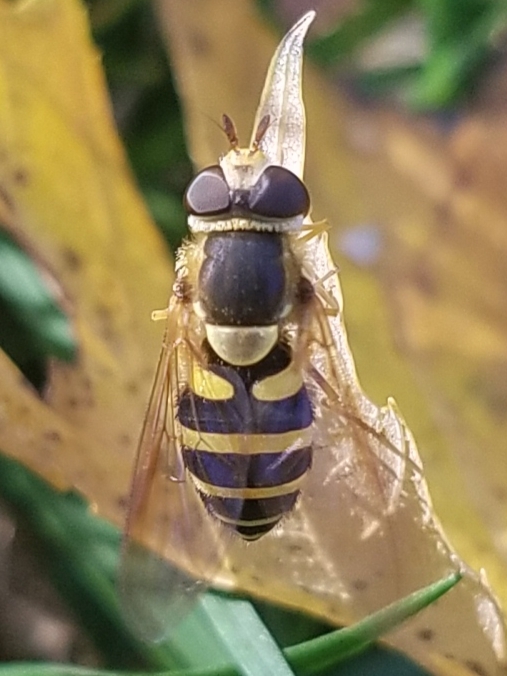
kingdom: Animalia
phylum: Arthropoda
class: Insecta
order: Diptera
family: Syrphidae
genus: Syrphus
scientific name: Syrphus knabi
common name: Eastern flower fly
